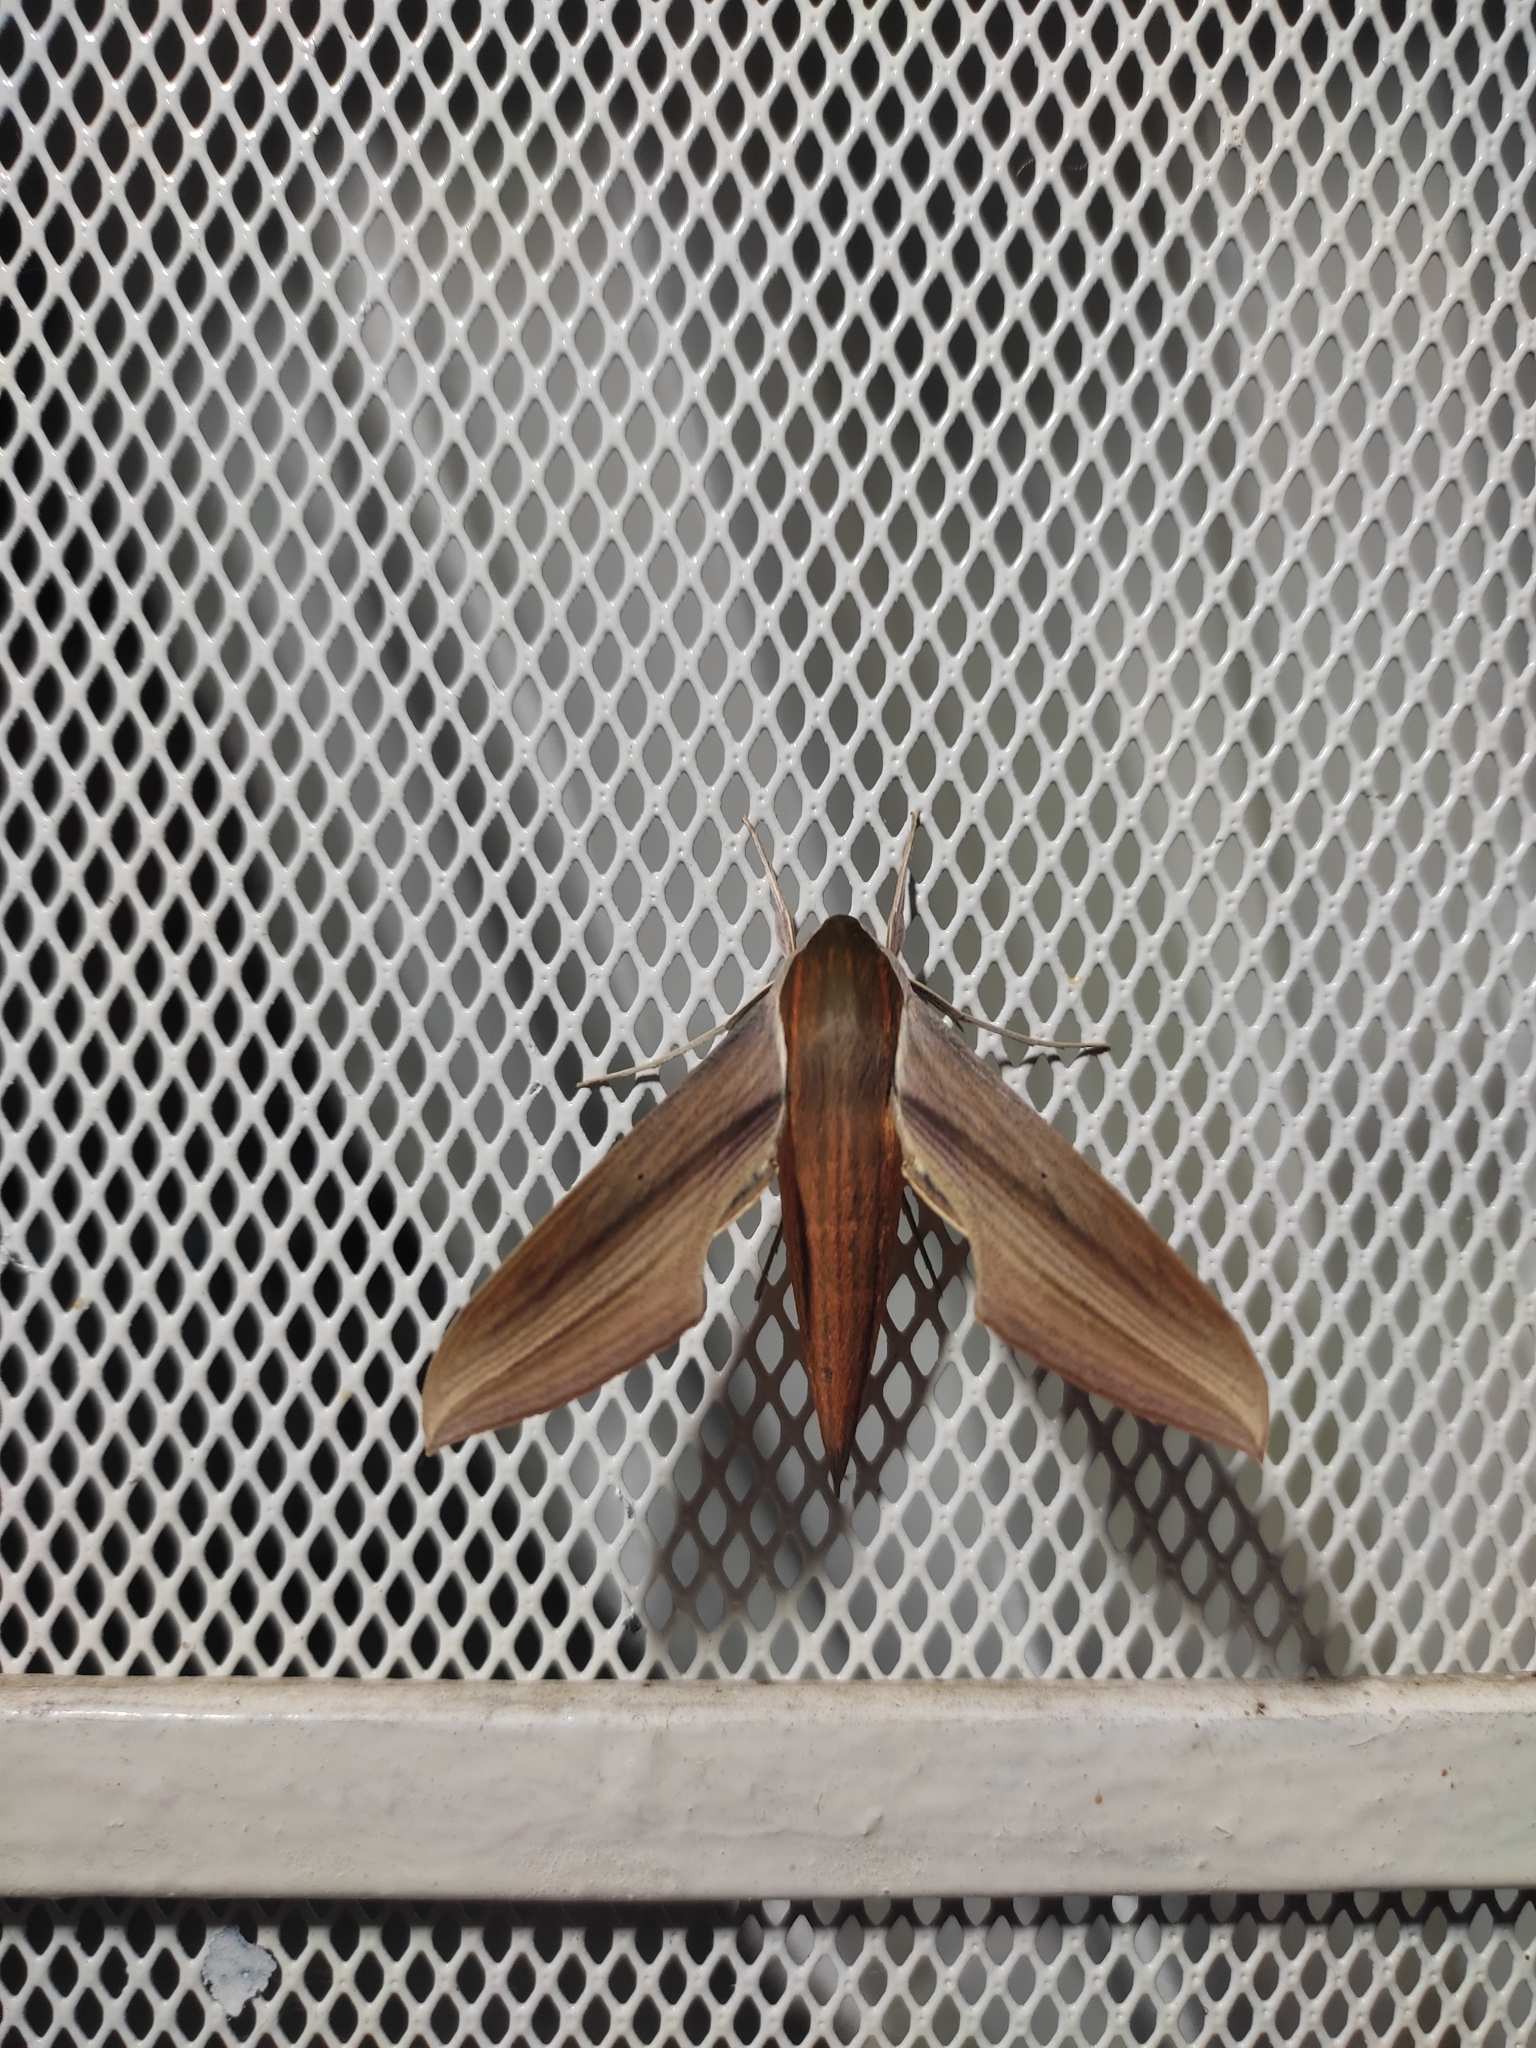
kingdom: Animalia
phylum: Arthropoda
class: Insecta
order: Lepidoptera
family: Sphingidae
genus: Xylophanes
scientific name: Xylophanes tersa
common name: Tersa sphinx
